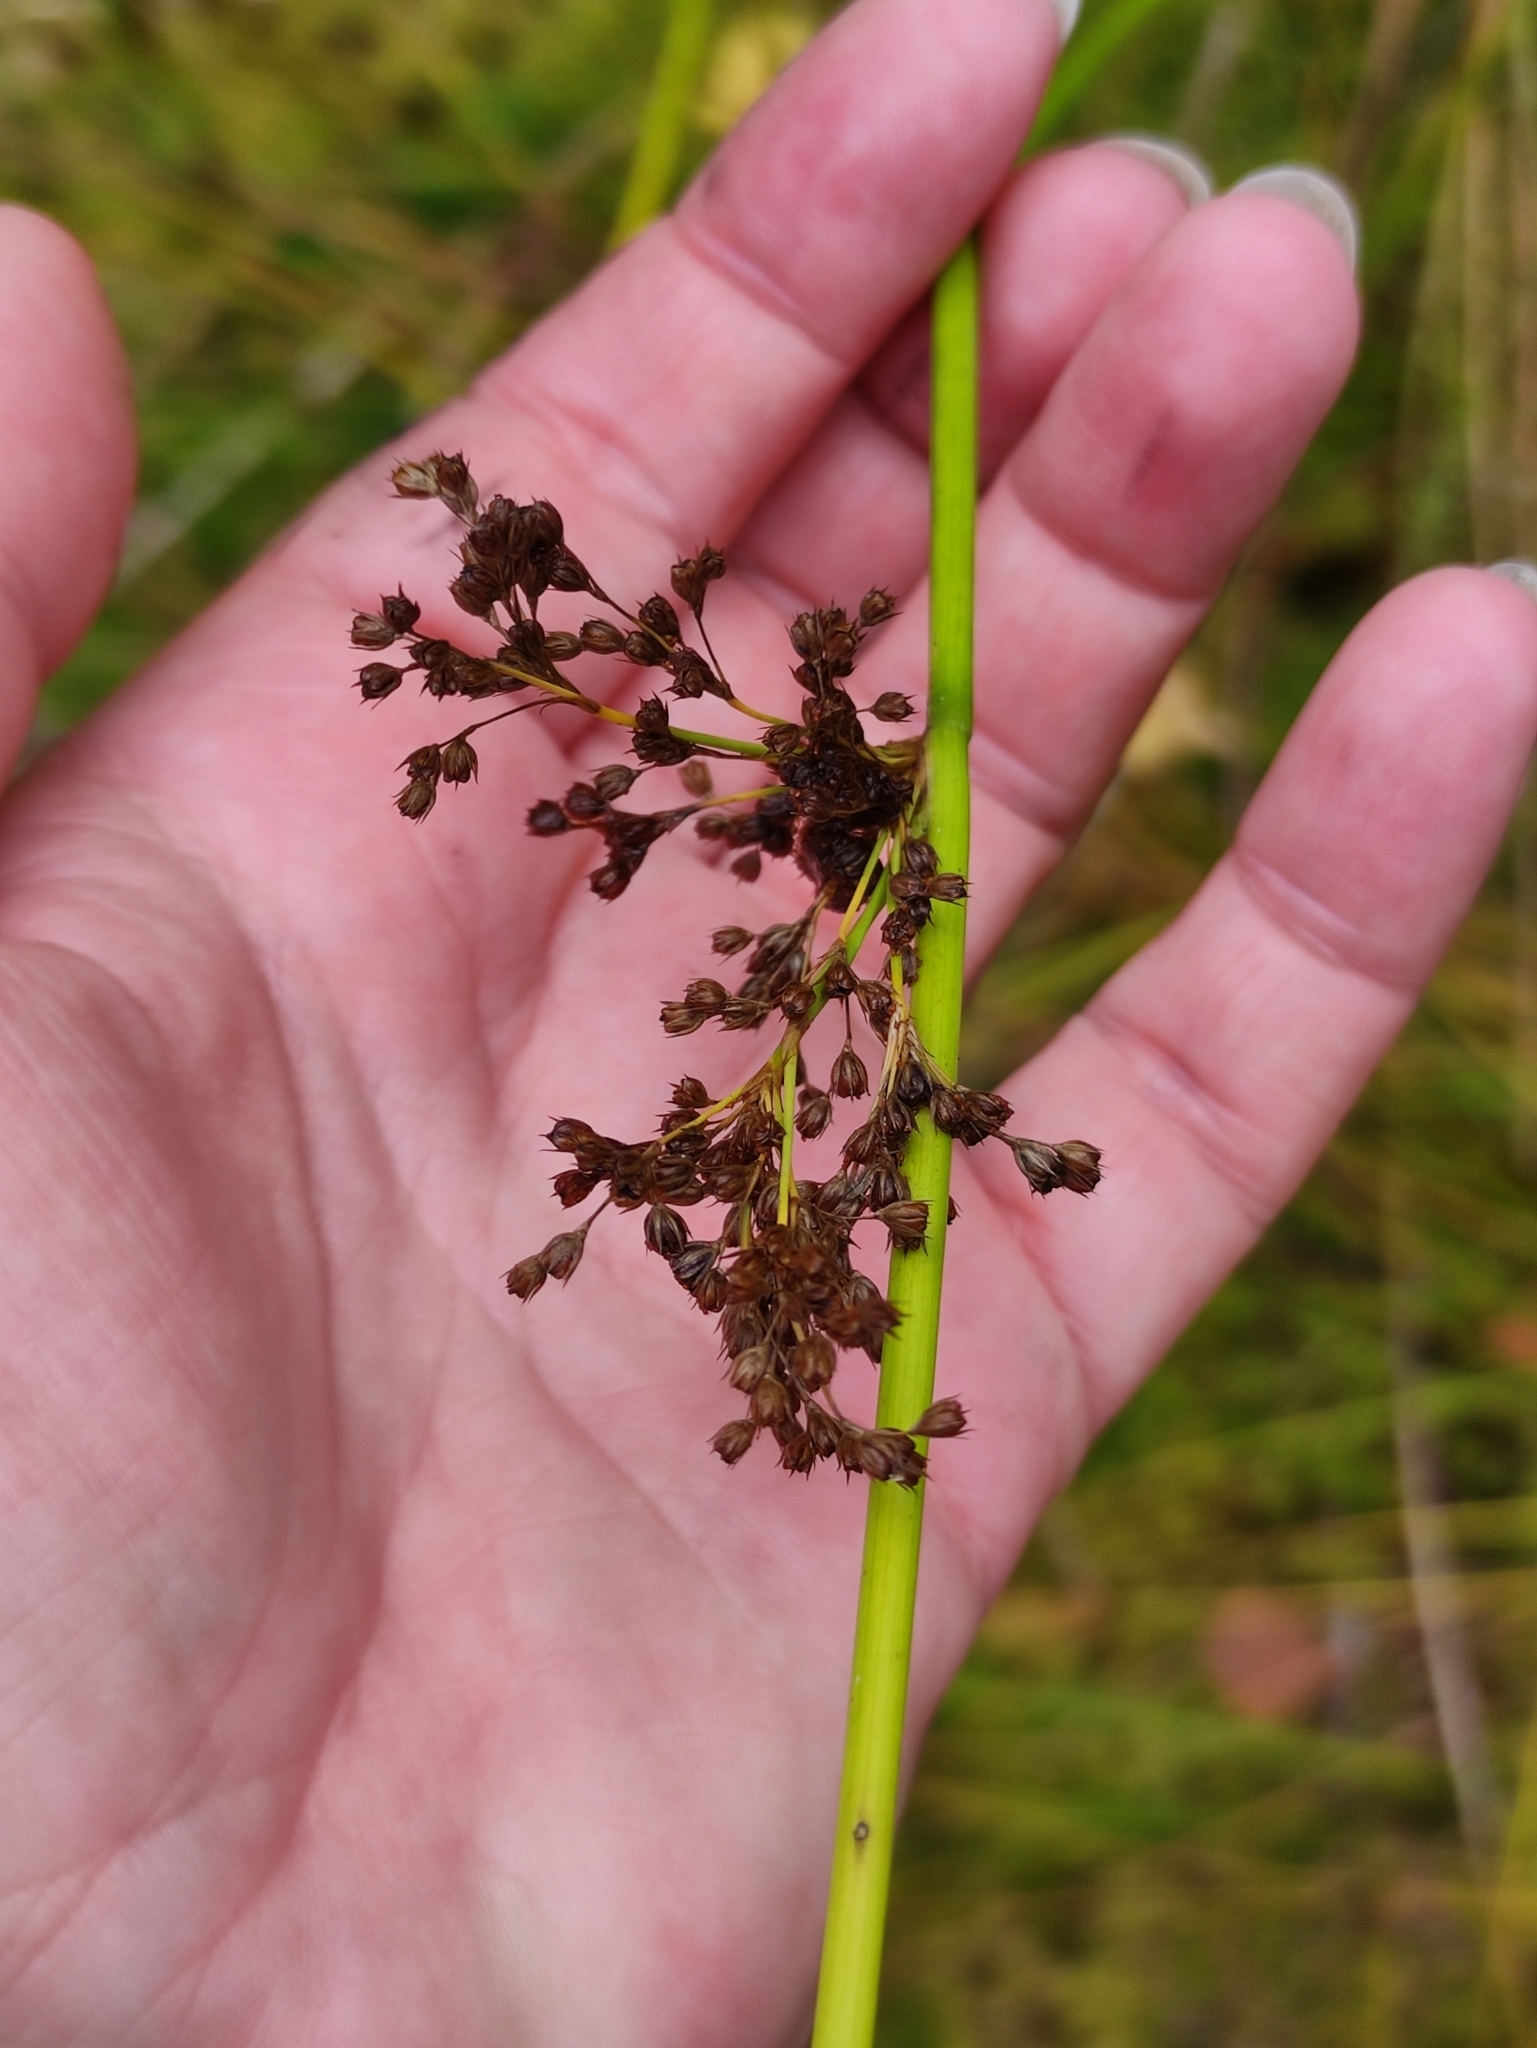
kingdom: Plantae
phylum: Tracheophyta
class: Liliopsida
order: Poales
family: Juncaceae
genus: Juncus
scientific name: Juncus effusus
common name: Soft rush
